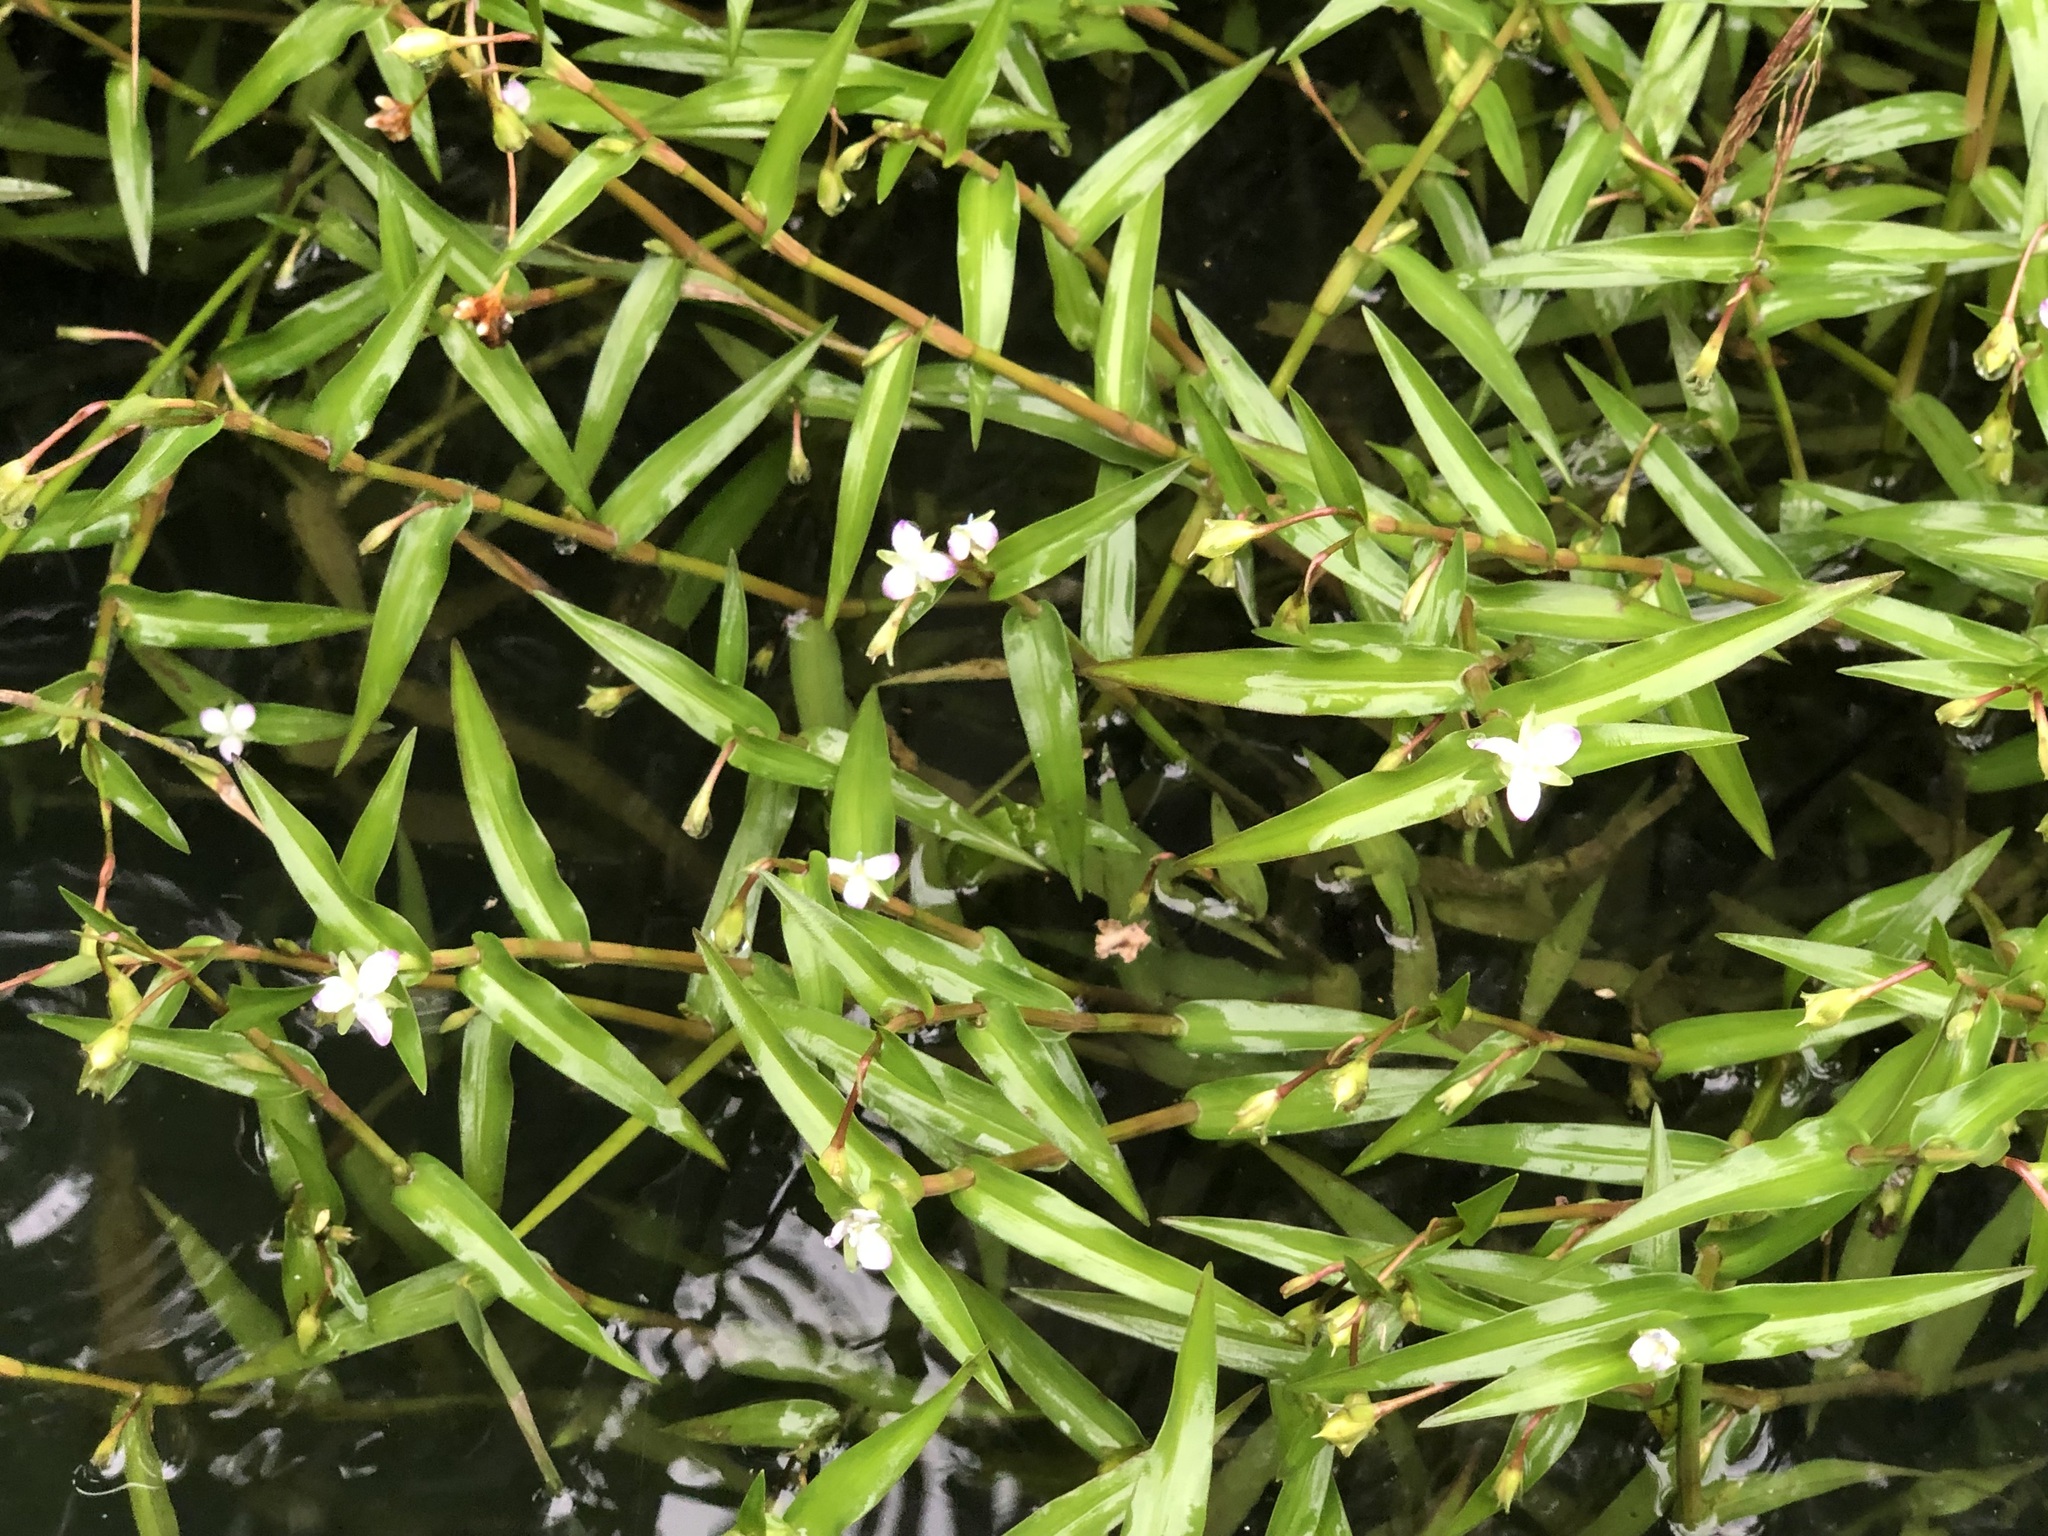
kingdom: Plantae
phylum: Tracheophyta
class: Liliopsida
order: Commelinales
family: Commelinaceae
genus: Murdannia
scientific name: Murdannia keisak
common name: Wartremoving herb
